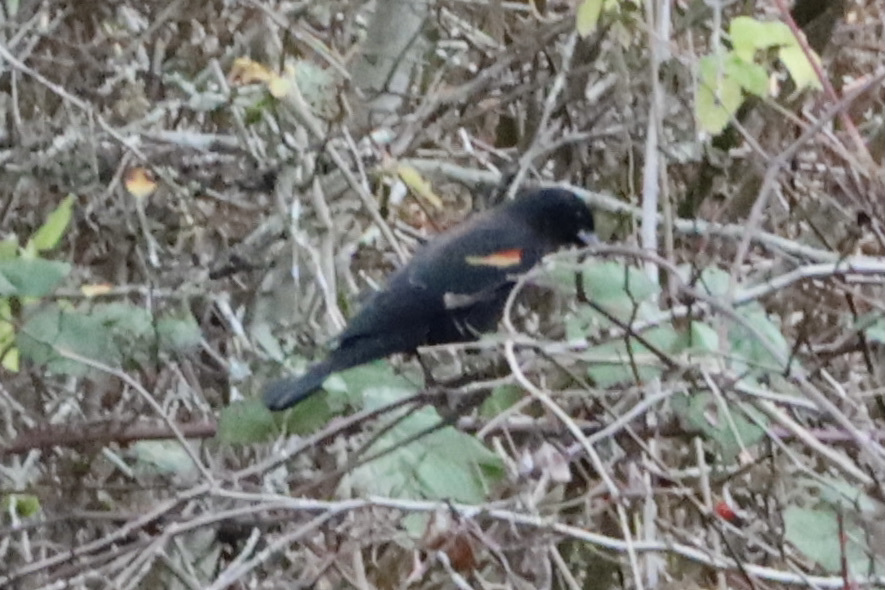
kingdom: Animalia
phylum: Chordata
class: Aves
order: Passeriformes
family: Icteridae
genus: Agelaius
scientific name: Agelaius phoeniceus
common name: Red-winged blackbird
